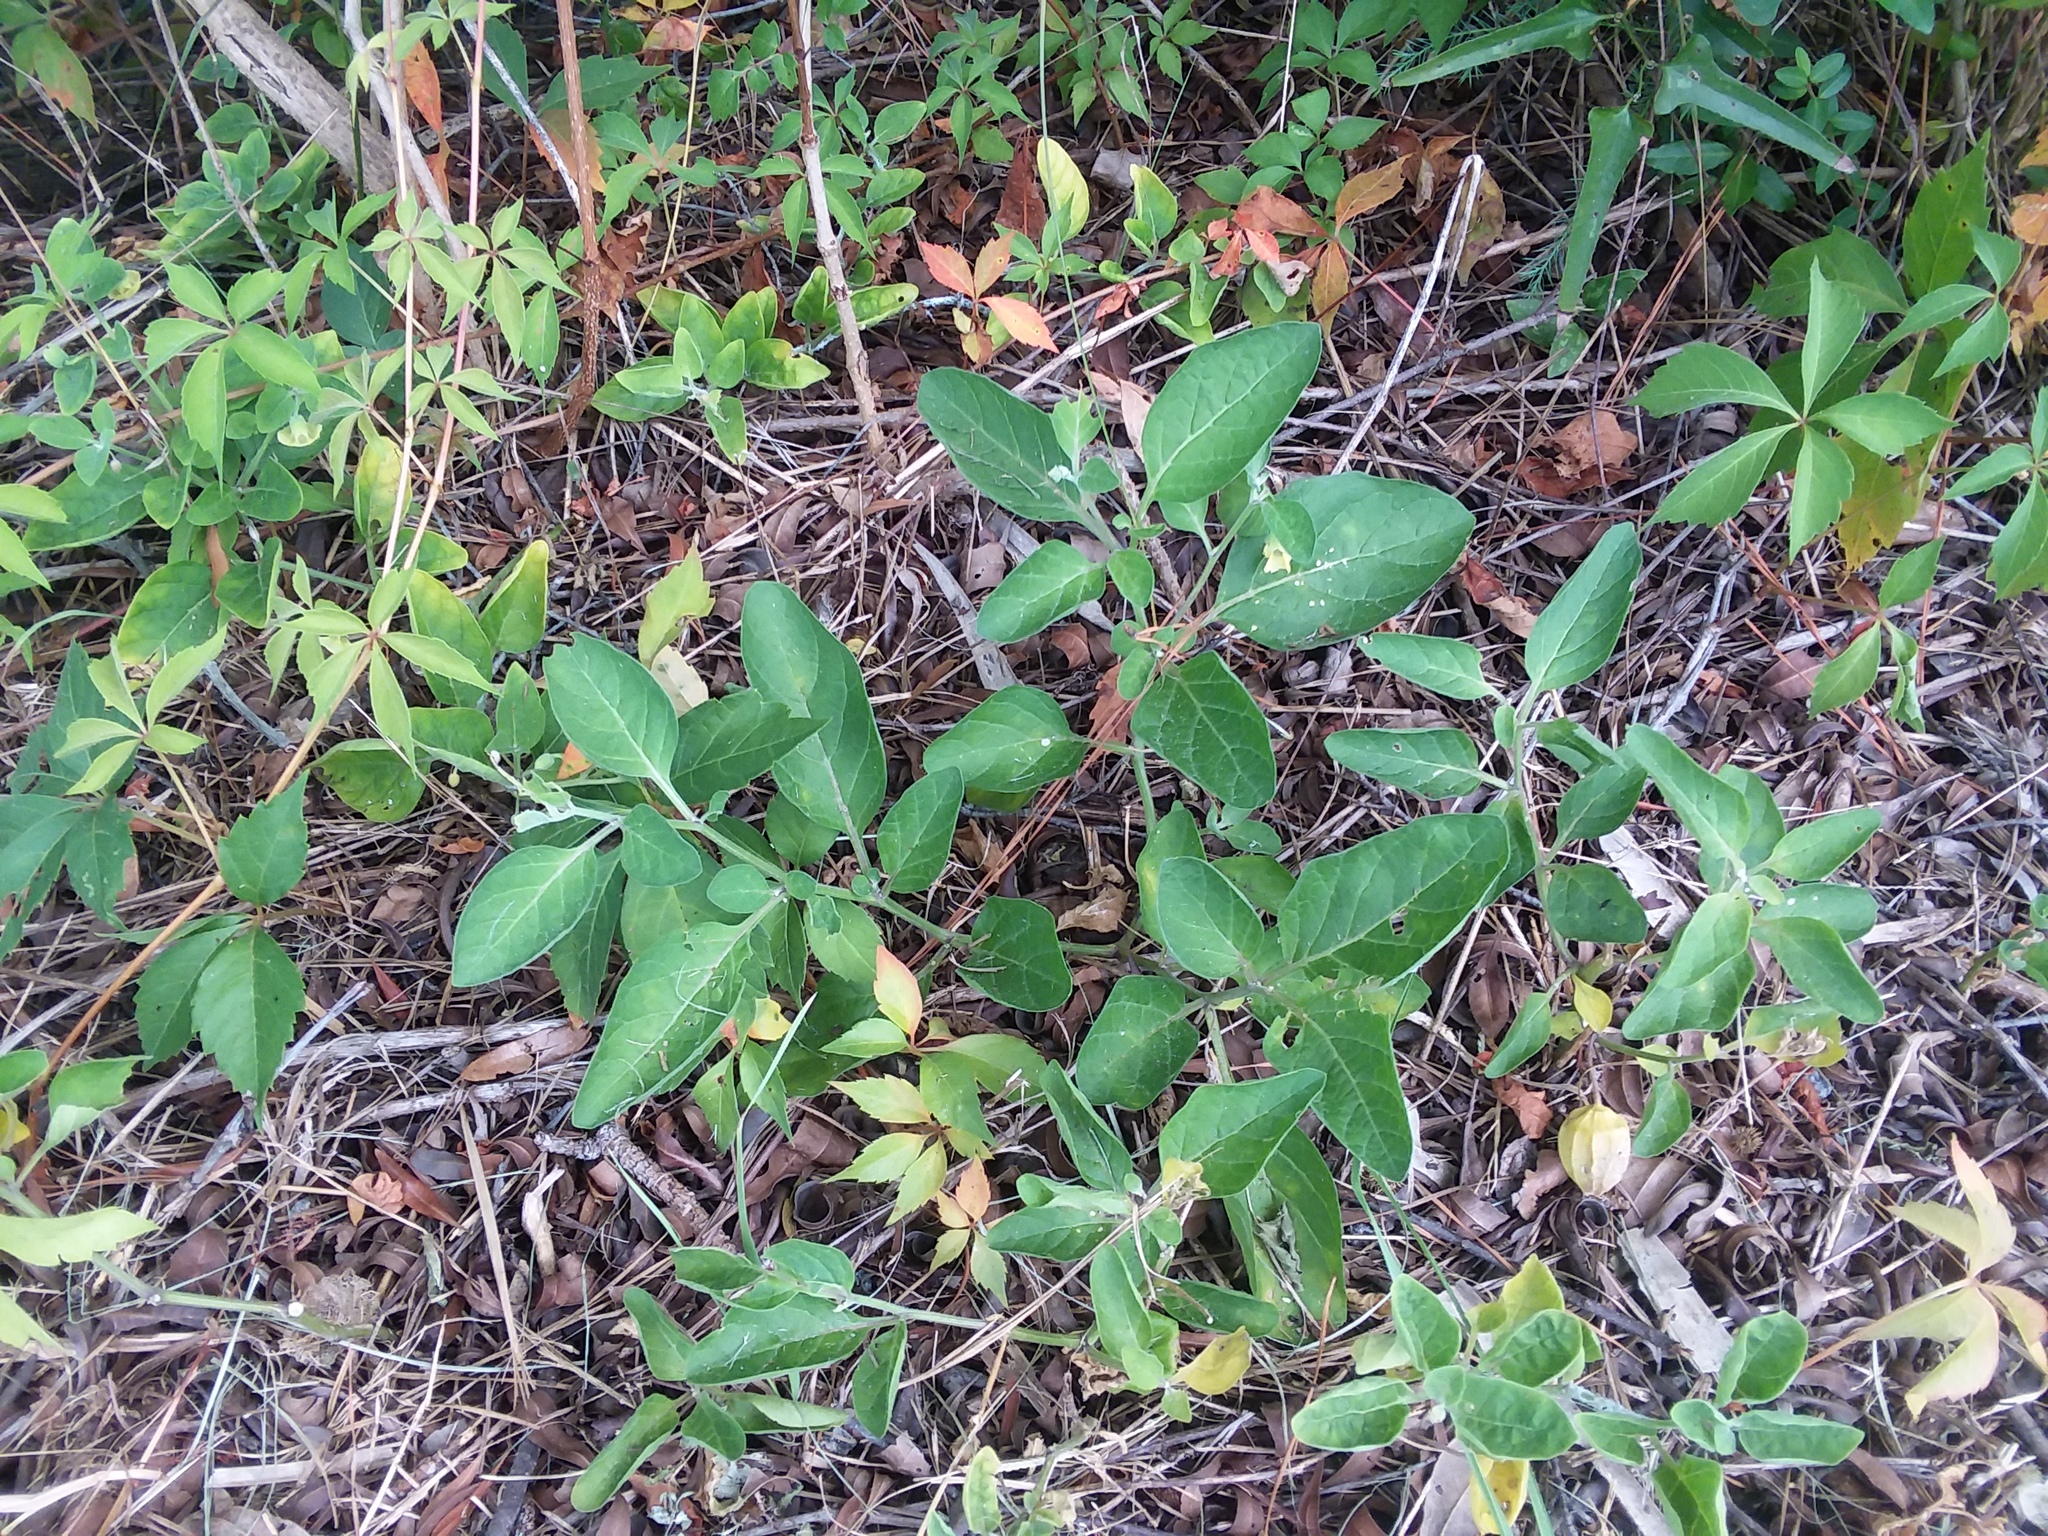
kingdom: Plantae
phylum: Tracheophyta
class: Magnoliopsida
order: Solanales
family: Solanaceae
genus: Physalis
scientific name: Physalis walteri
